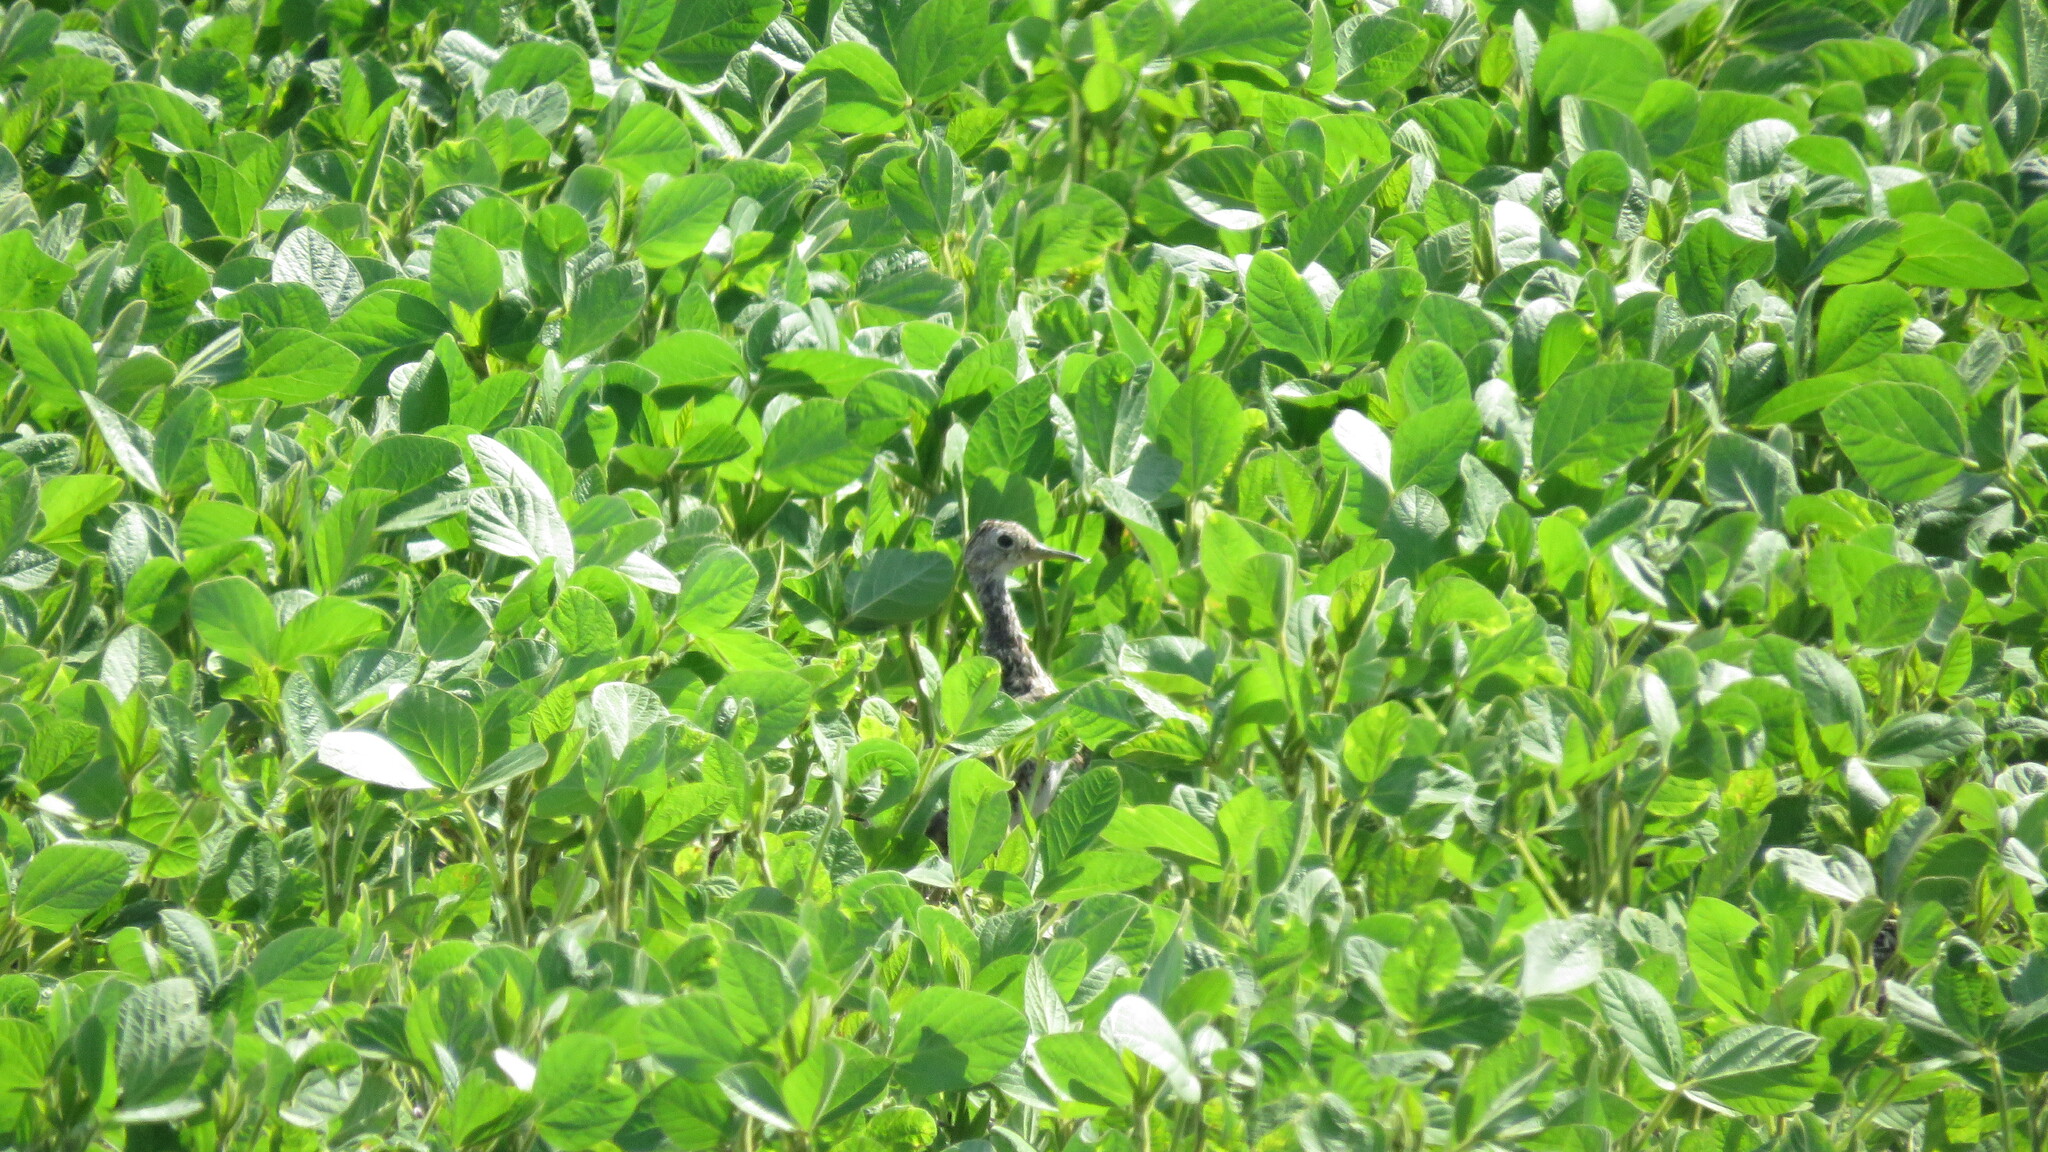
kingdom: Animalia
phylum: Chordata
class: Aves
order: Charadriiformes
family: Scolopacidae
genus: Bartramia
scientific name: Bartramia longicauda
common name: Upland sandpiper
